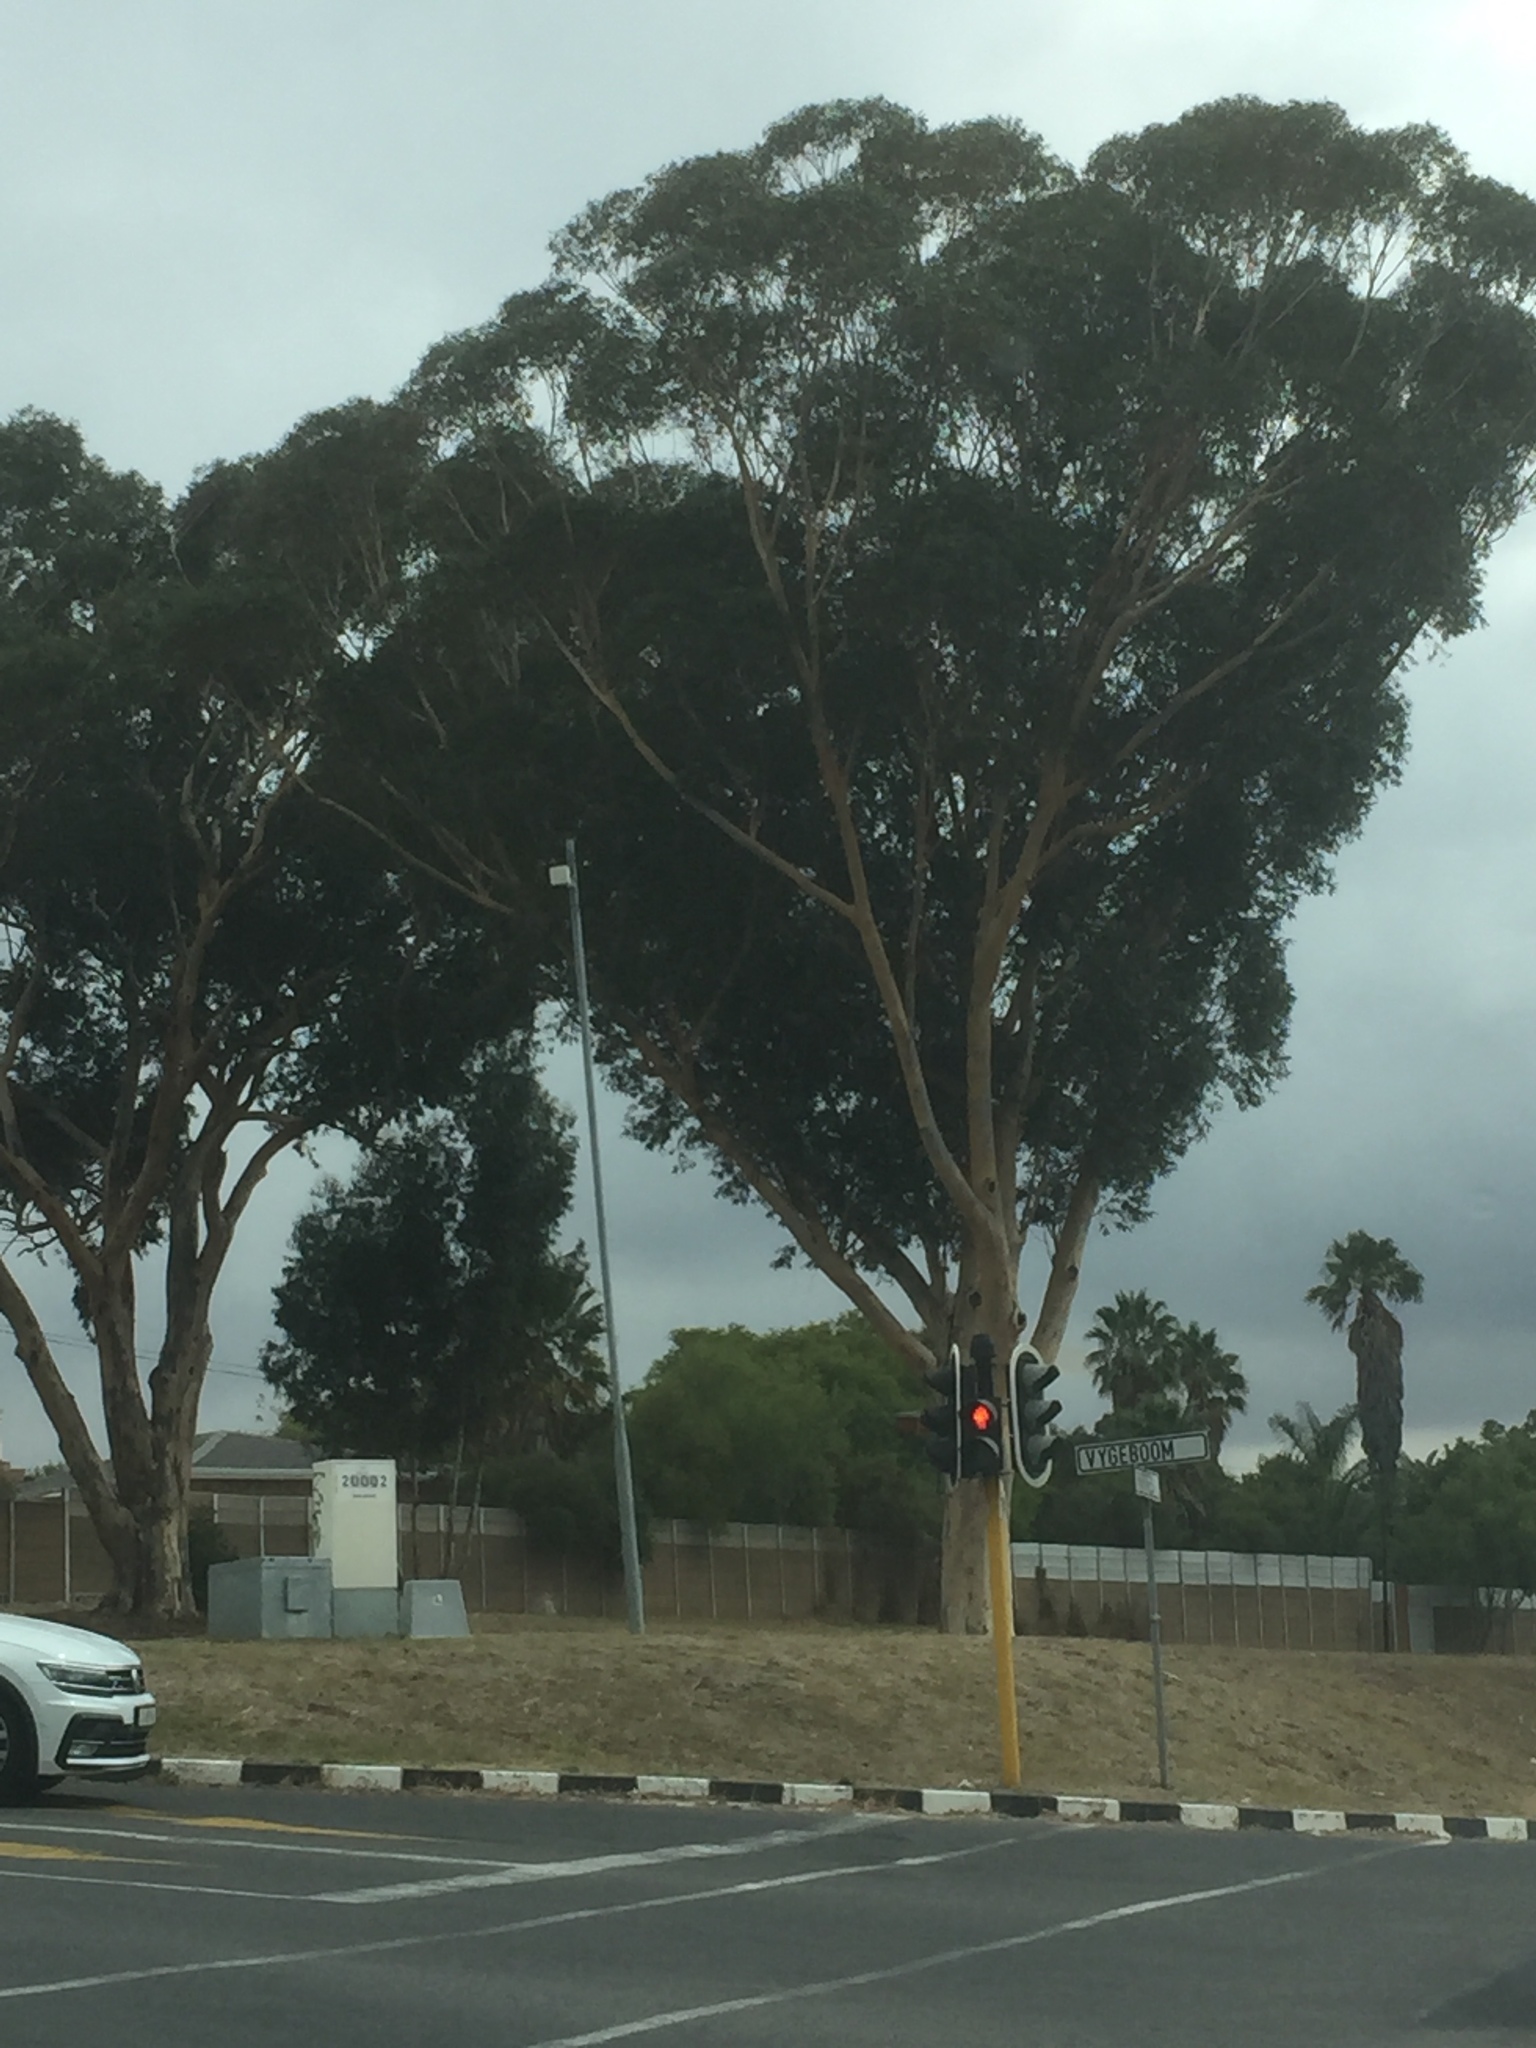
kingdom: Plantae
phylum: Tracheophyta
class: Magnoliopsida
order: Myrtales
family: Myrtaceae
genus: Eucalyptus
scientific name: Eucalyptus cladocalyx
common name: Sugargum
